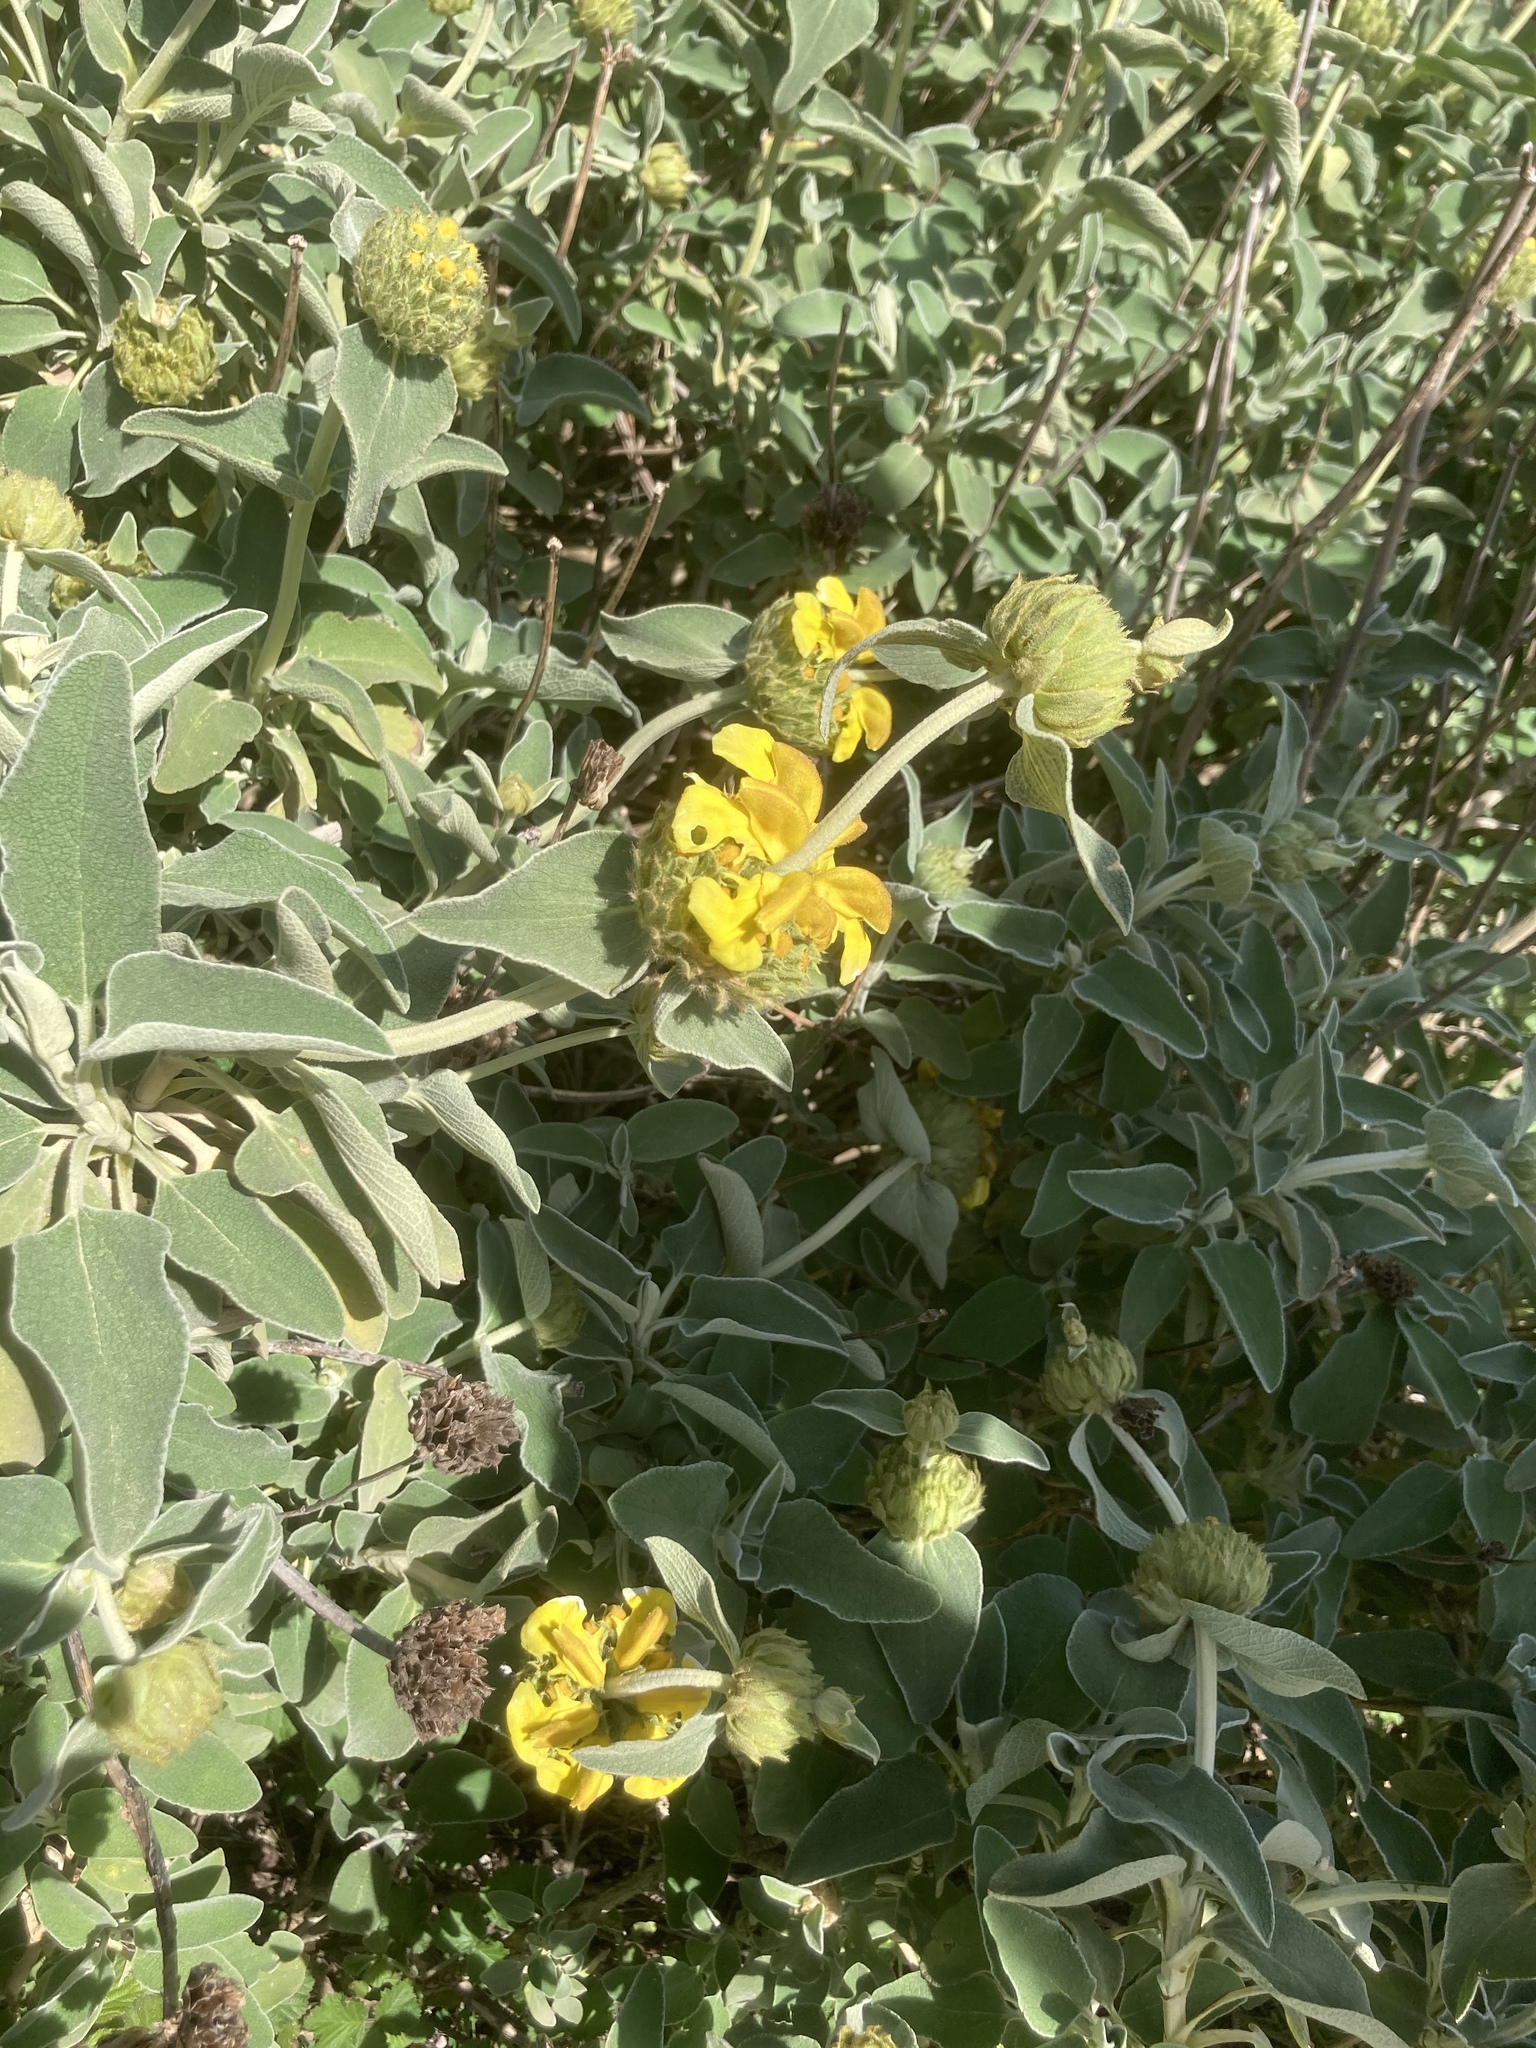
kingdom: Plantae
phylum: Tracheophyta
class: Magnoliopsida
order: Lamiales
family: Lamiaceae
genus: Phlomis
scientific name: Phlomis fruticosa
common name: Jerusalem sage
